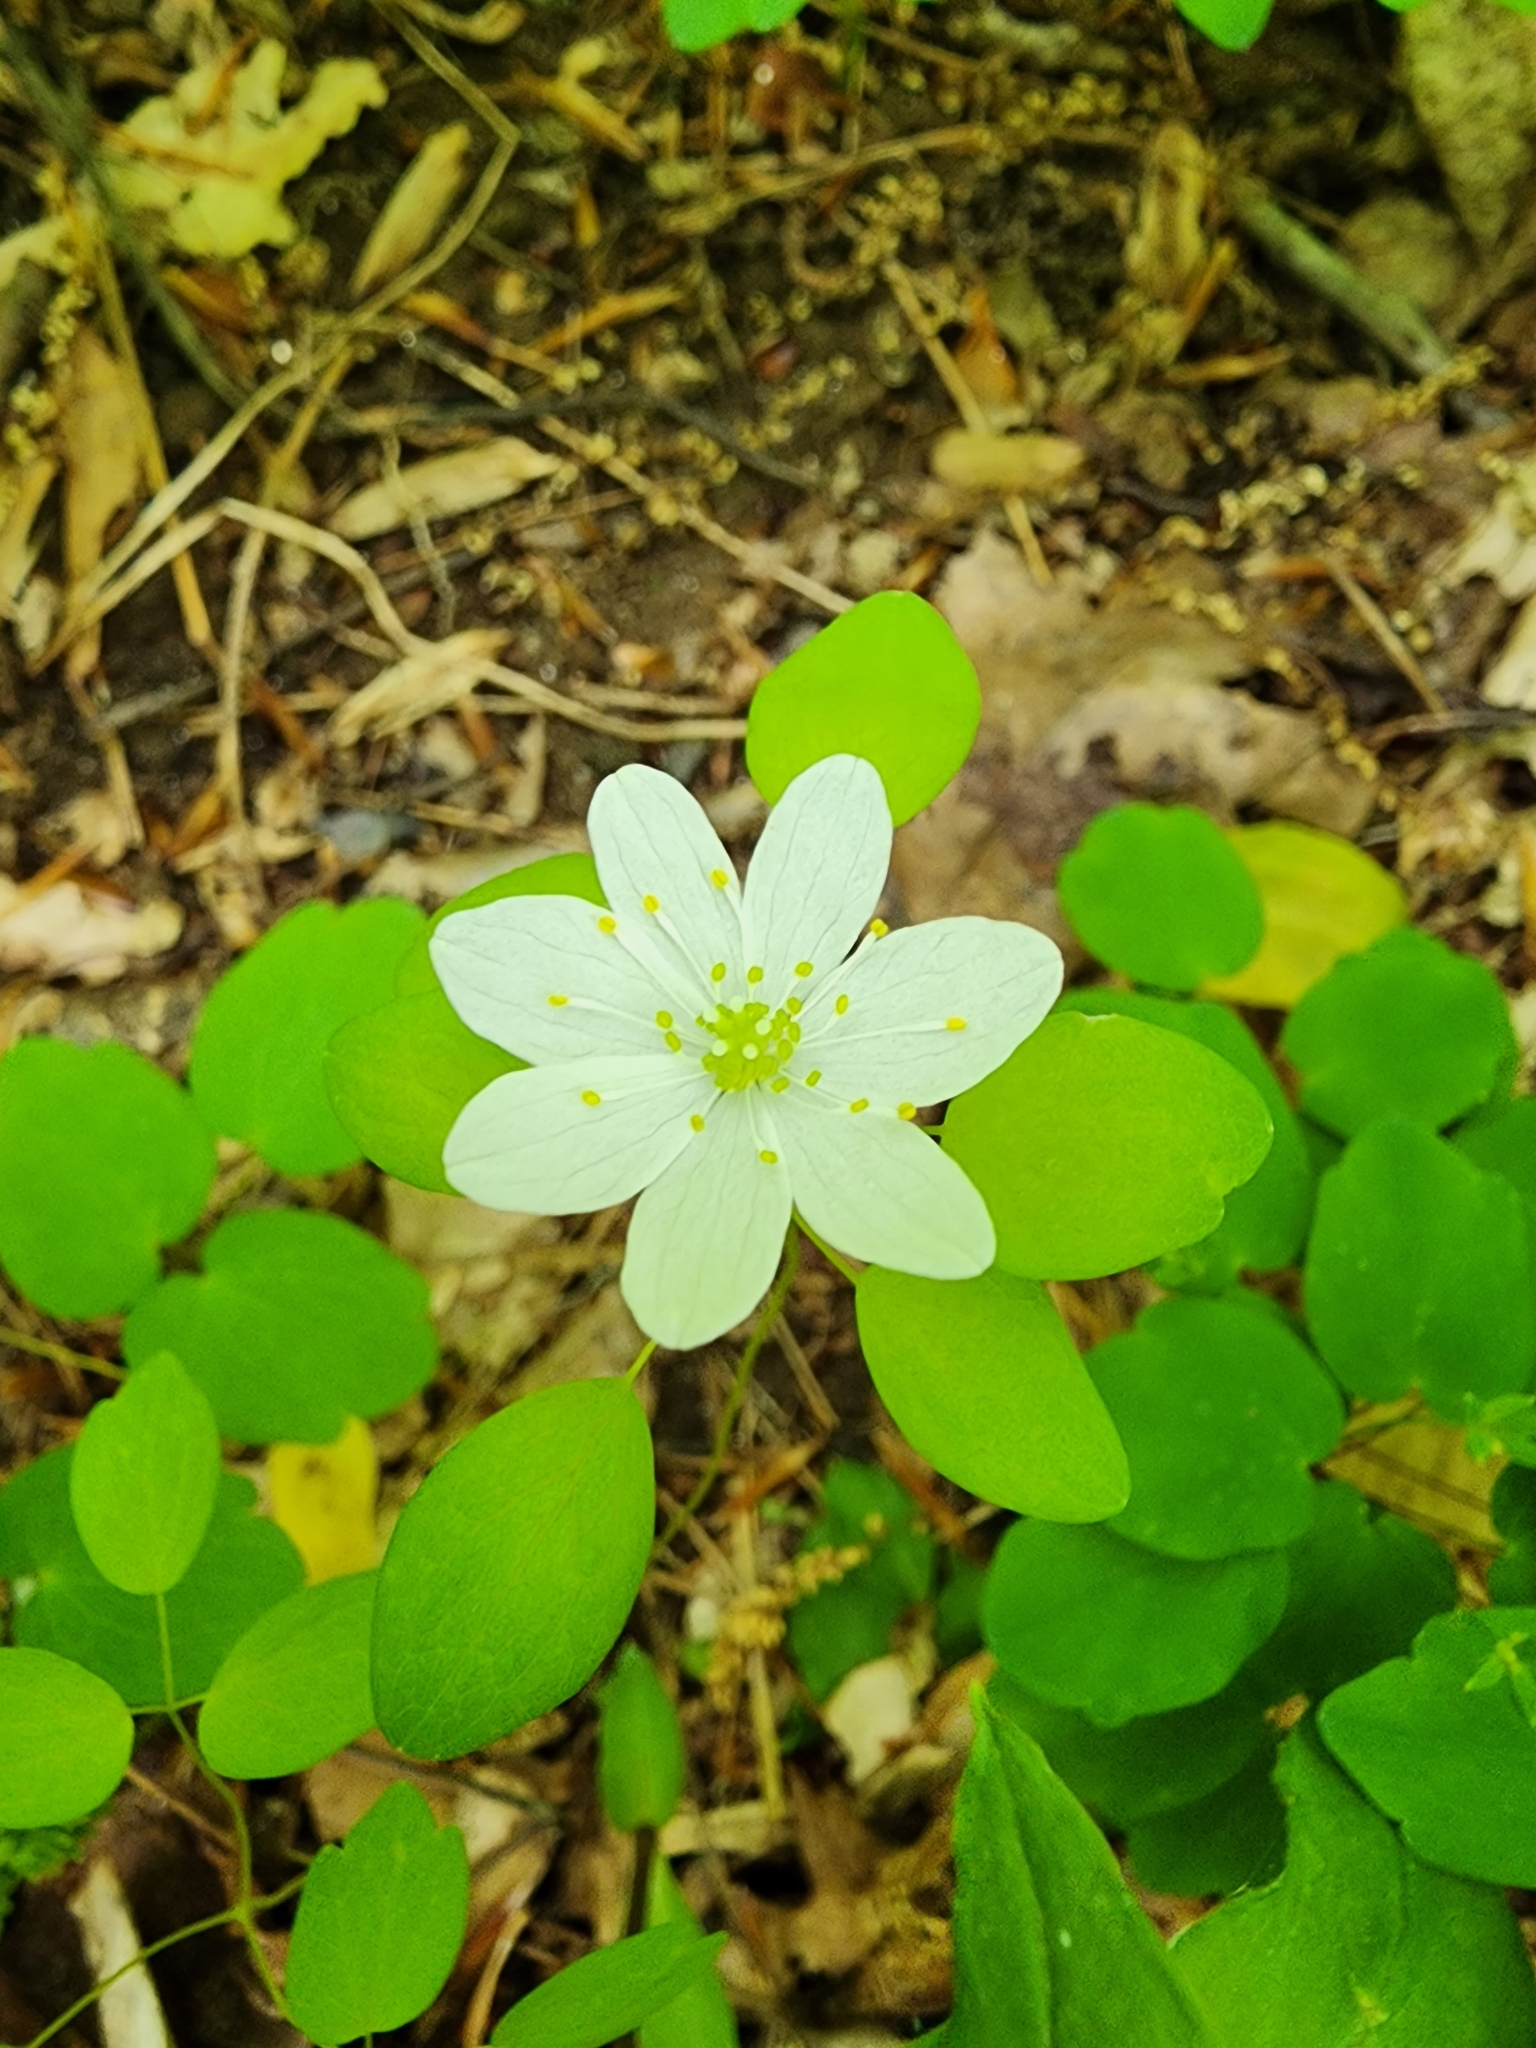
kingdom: Plantae
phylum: Tracheophyta
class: Magnoliopsida
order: Ranunculales
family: Ranunculaceae
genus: Thalictrum
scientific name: Thalictrum thalictroides
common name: Rue-anemone
